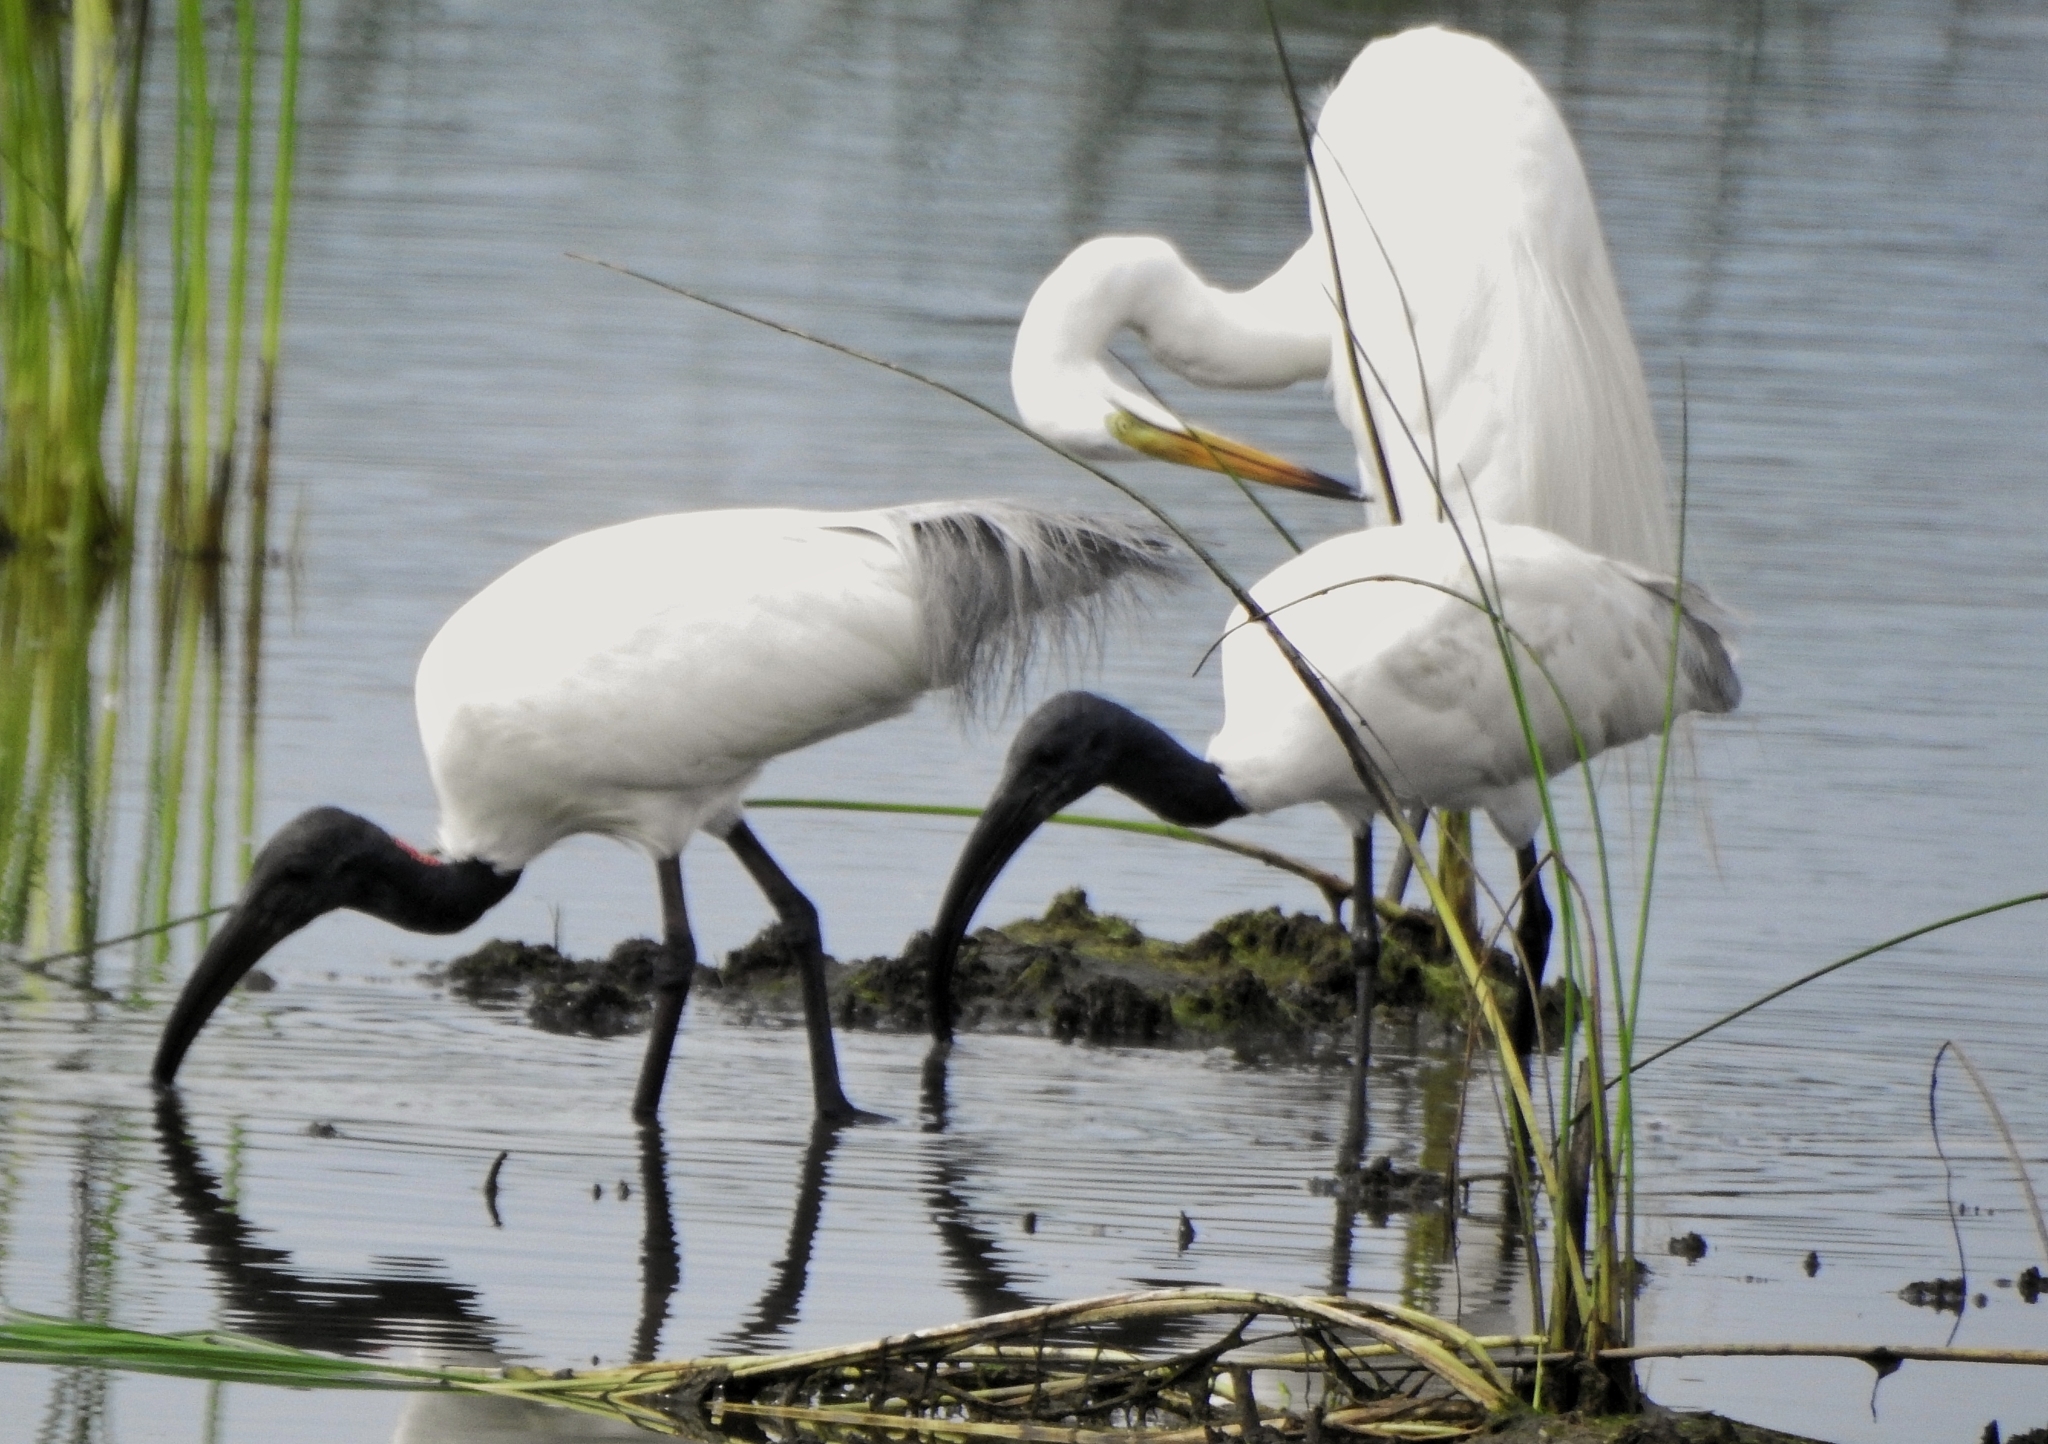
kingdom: Animalia
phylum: Chordata
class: Aves
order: Pelecaniformes
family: Threskiornithidae
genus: Threskiornis
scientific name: Threskiornis melanocephalus
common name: Black-headed ibis
